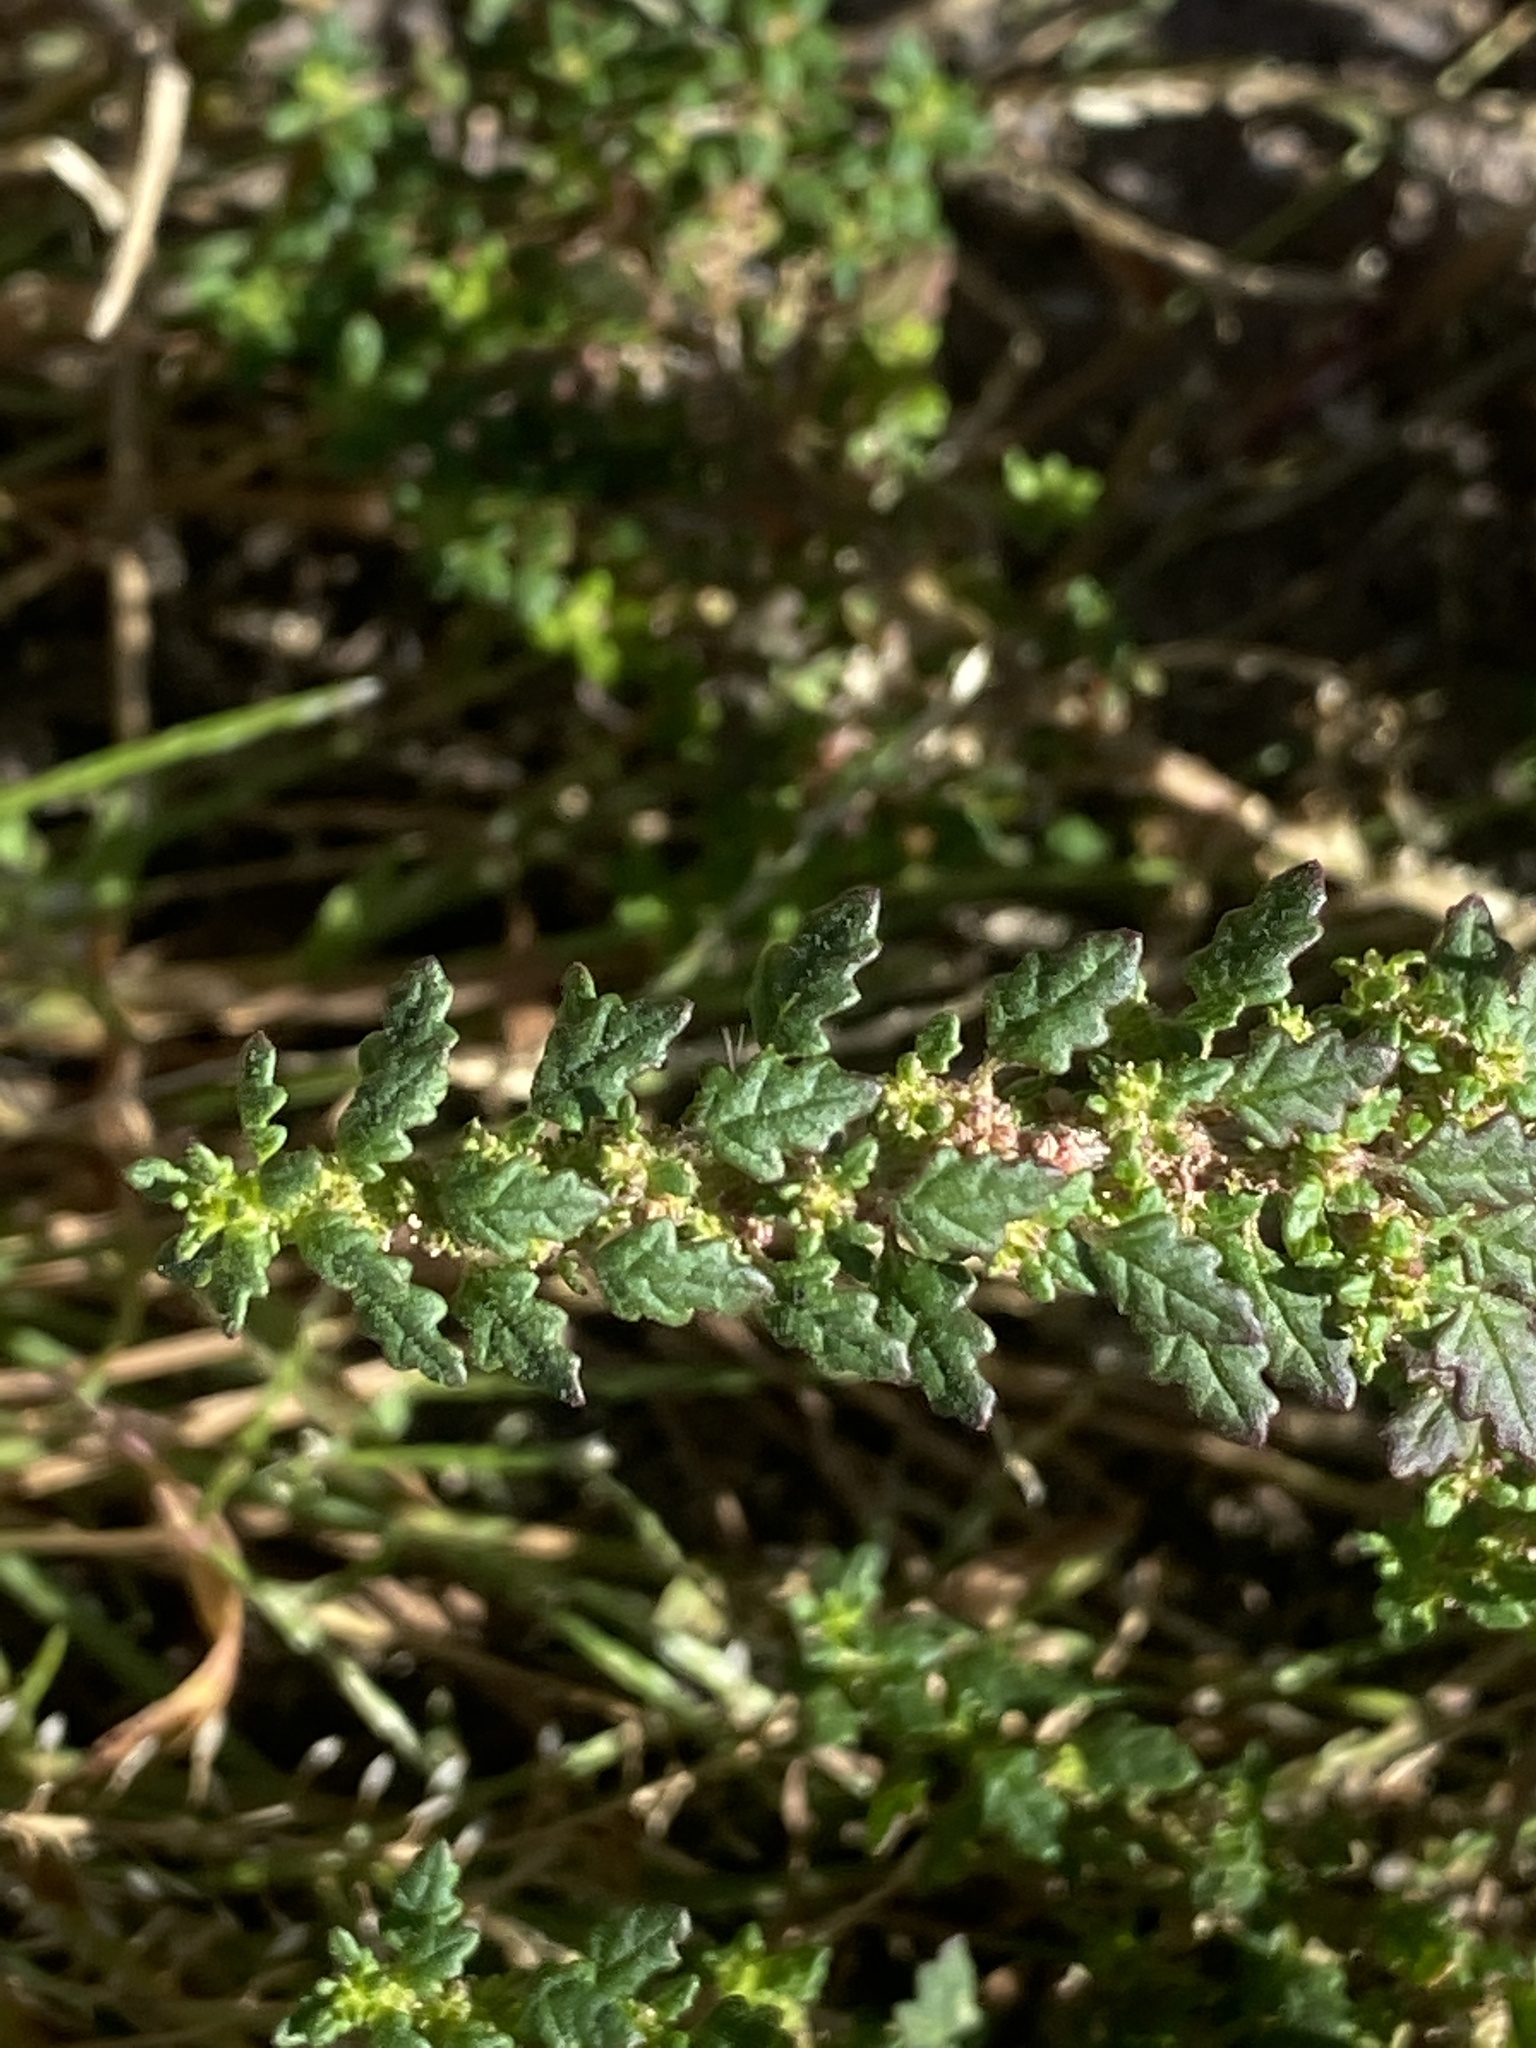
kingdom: Plantae
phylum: Tracheophyta
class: Magnoliopsida
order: Caryophyllales
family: Amaranthaceae
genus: Dysphania
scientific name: Dysphania pumilio
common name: Clammy goosefoot
